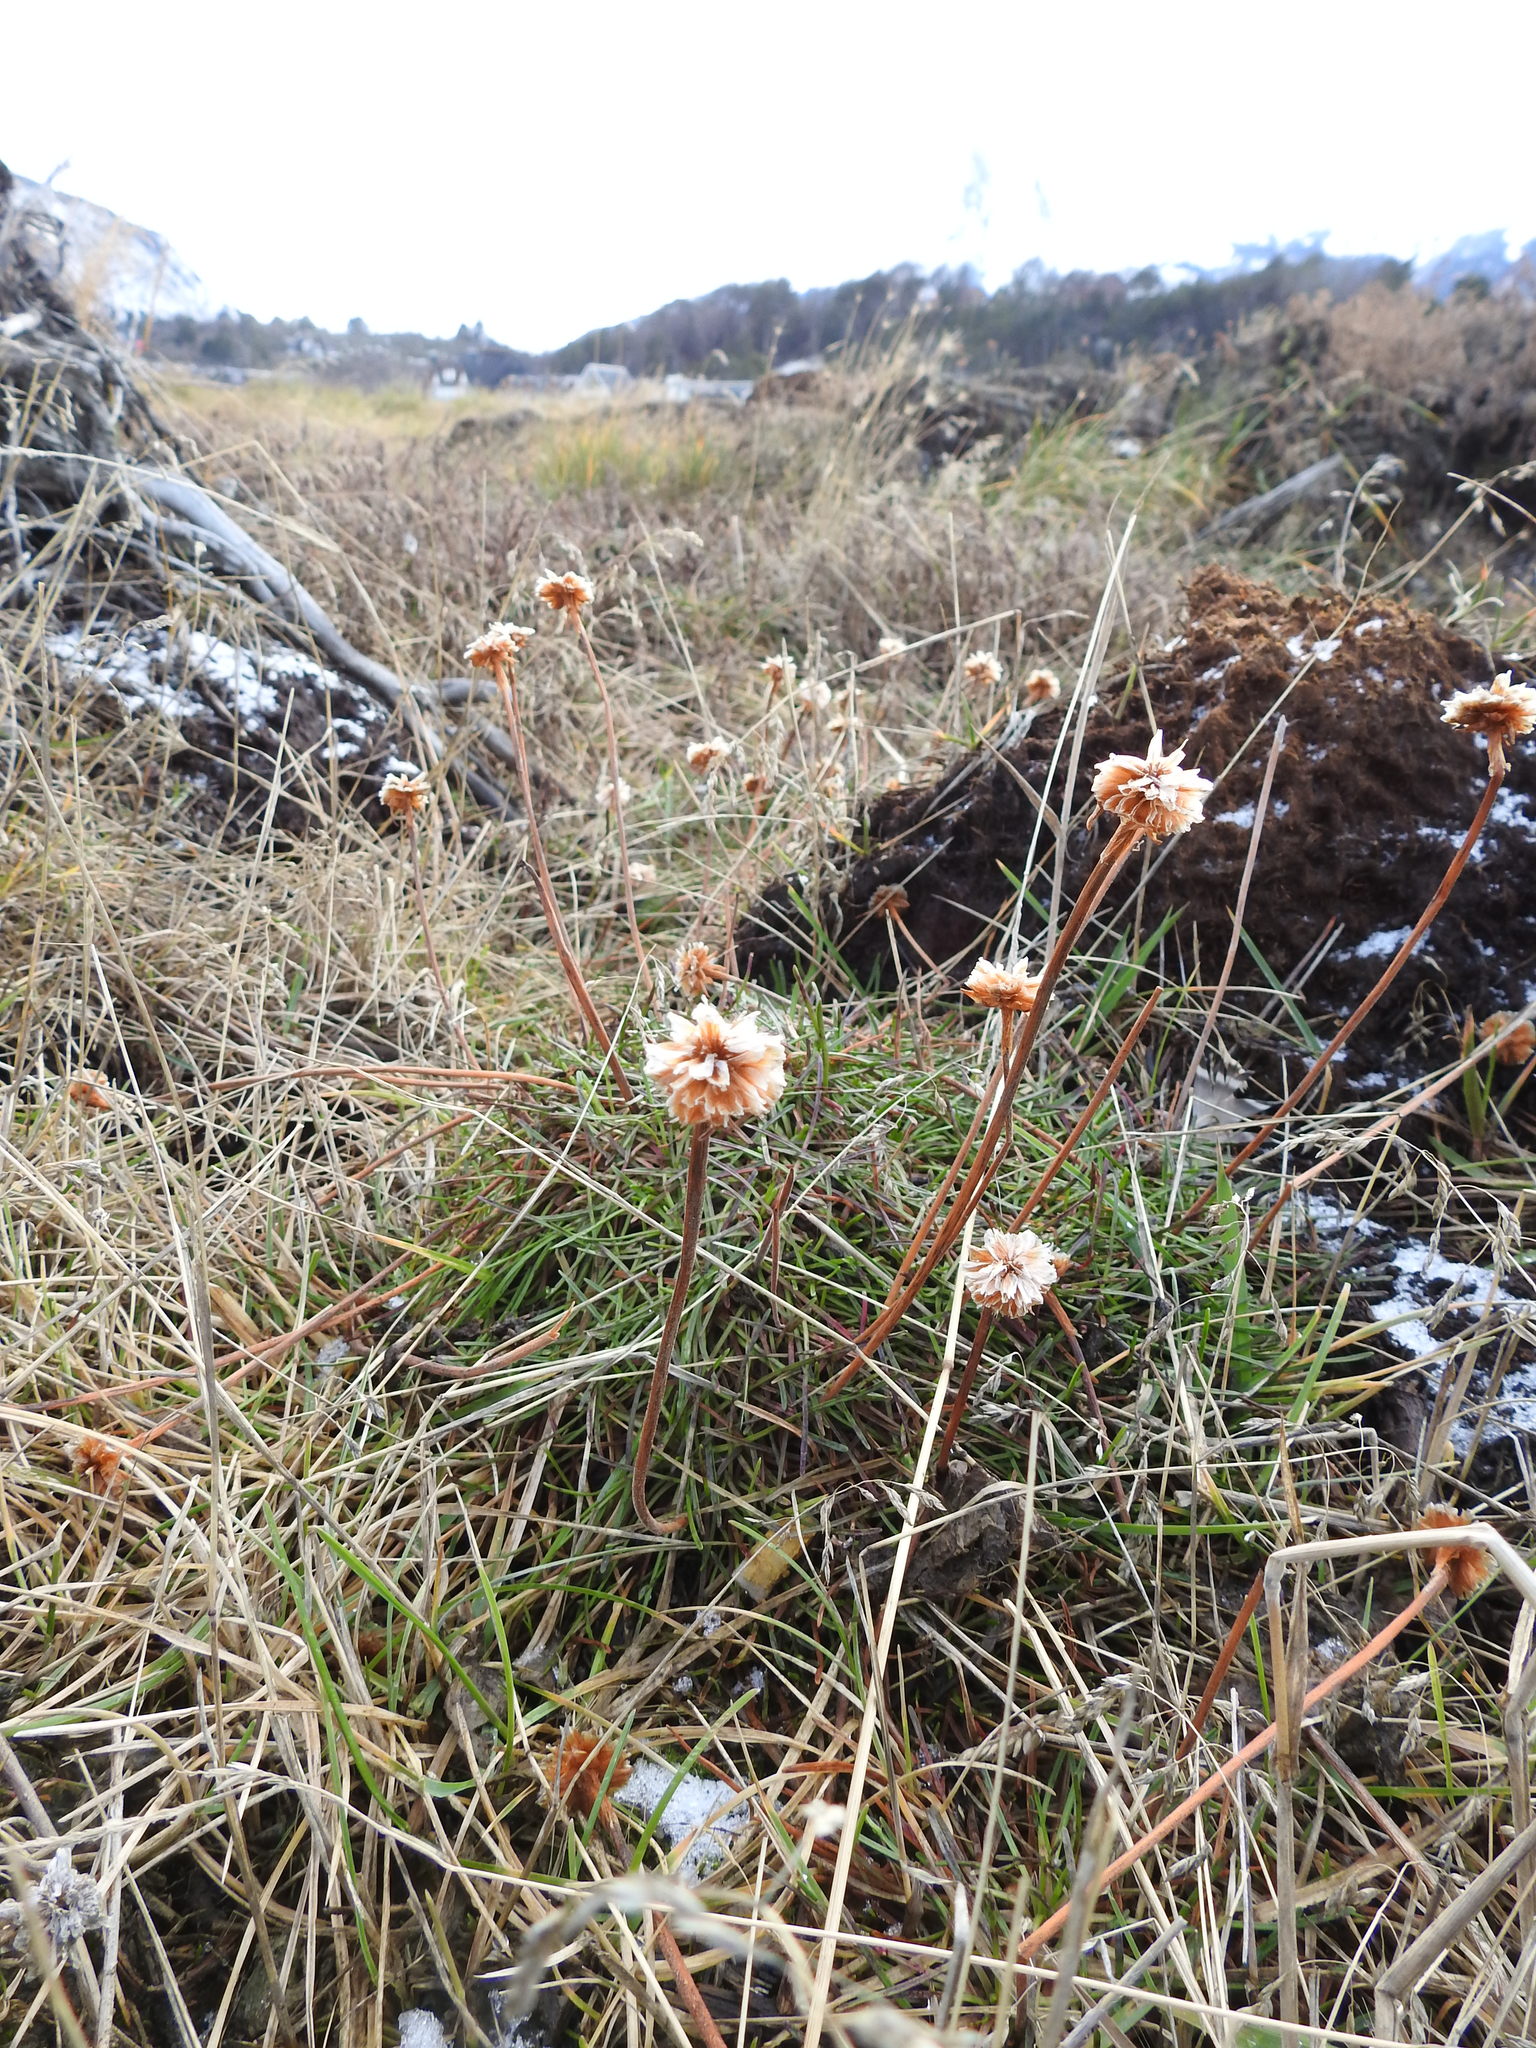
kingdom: Plantae
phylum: Tracheophyta
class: Magnoliopsida
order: Caryophyllales
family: Plumbaginaceae
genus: Armeria
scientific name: Armeria curvifolia
